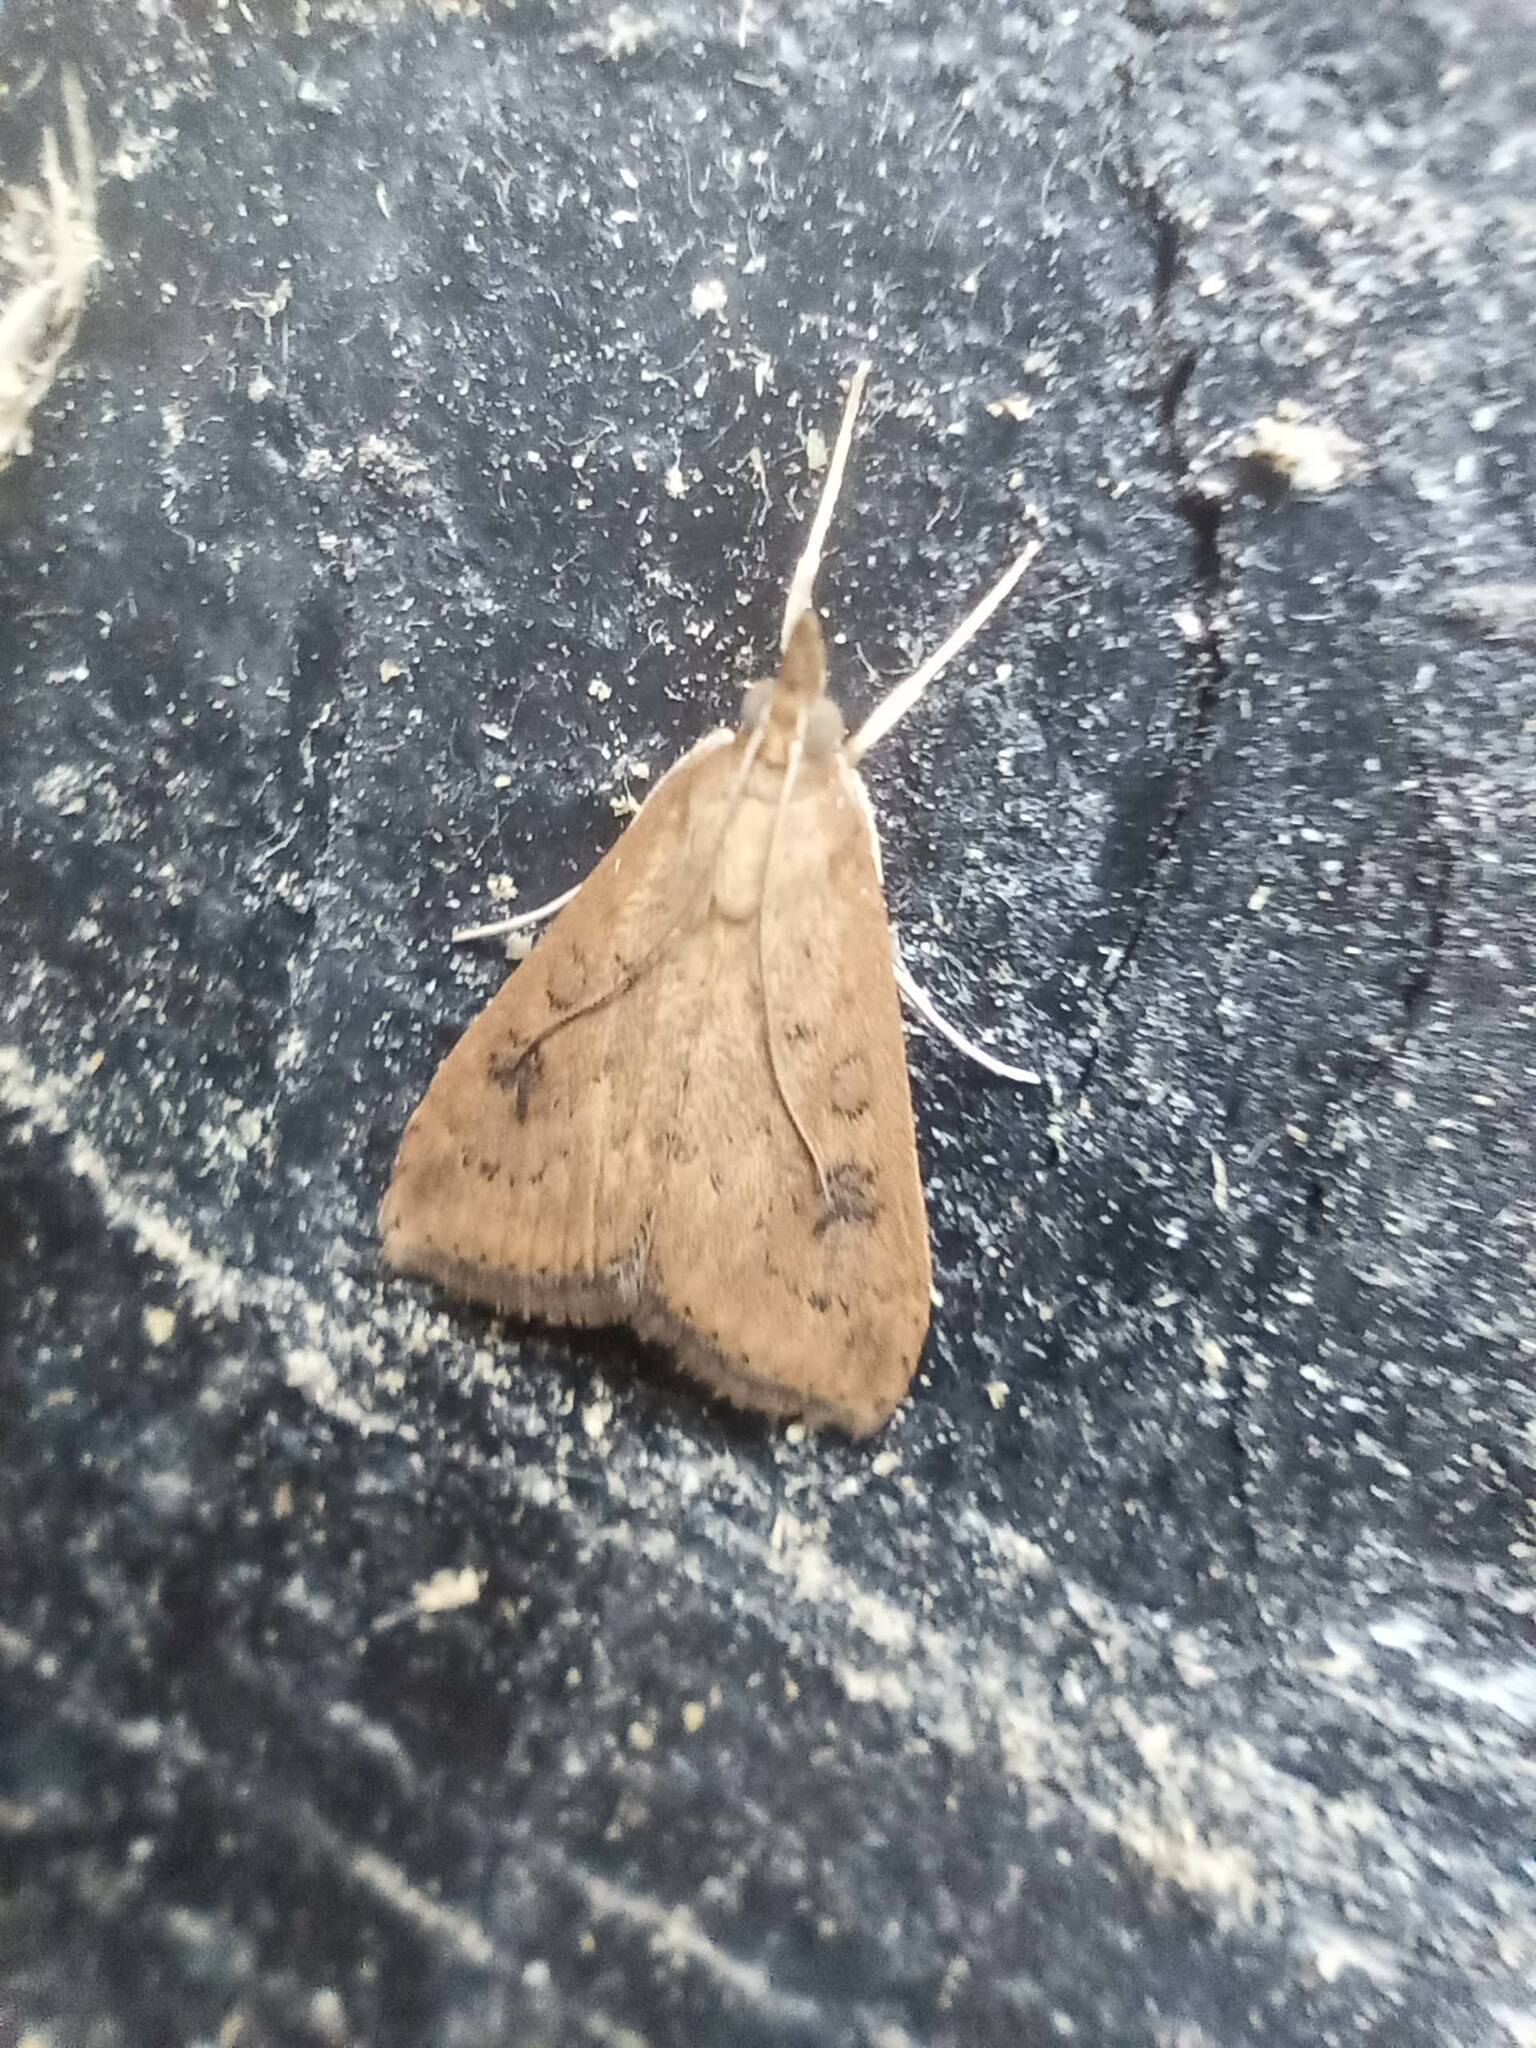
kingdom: Animalia
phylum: Arthropoda
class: Insecta
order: Lepidoptera
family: Crambidae
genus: Udea
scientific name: Udea ferrugalis
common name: Rusty dot
